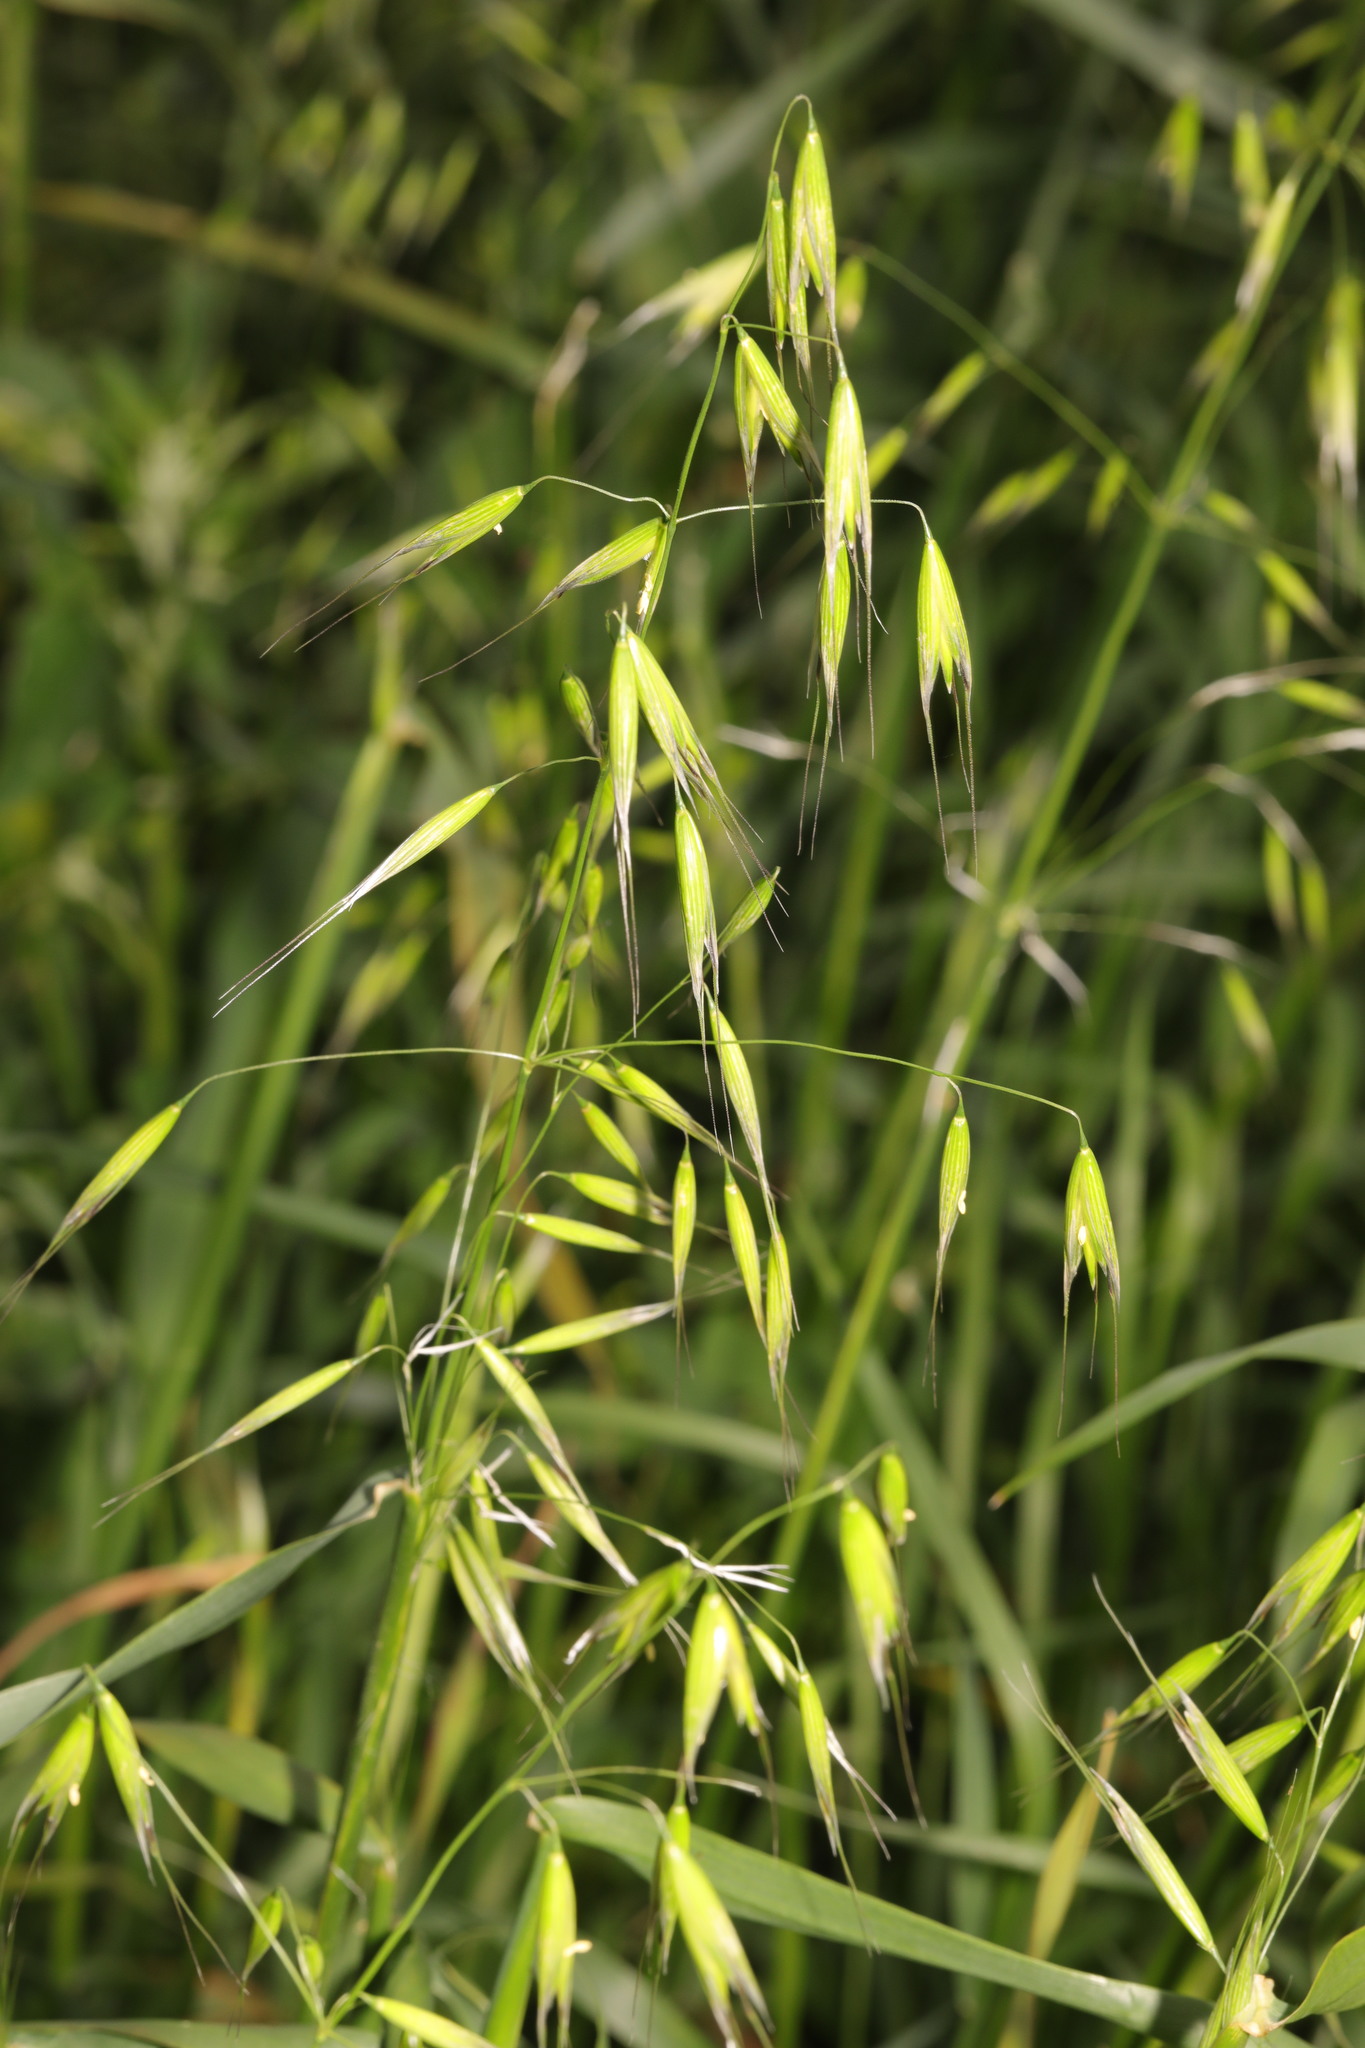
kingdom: Plantae
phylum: Tracheophyta
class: Liliopsida
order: Poales
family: Poaceae
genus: Avena
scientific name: Avena fatua
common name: Wild oat
